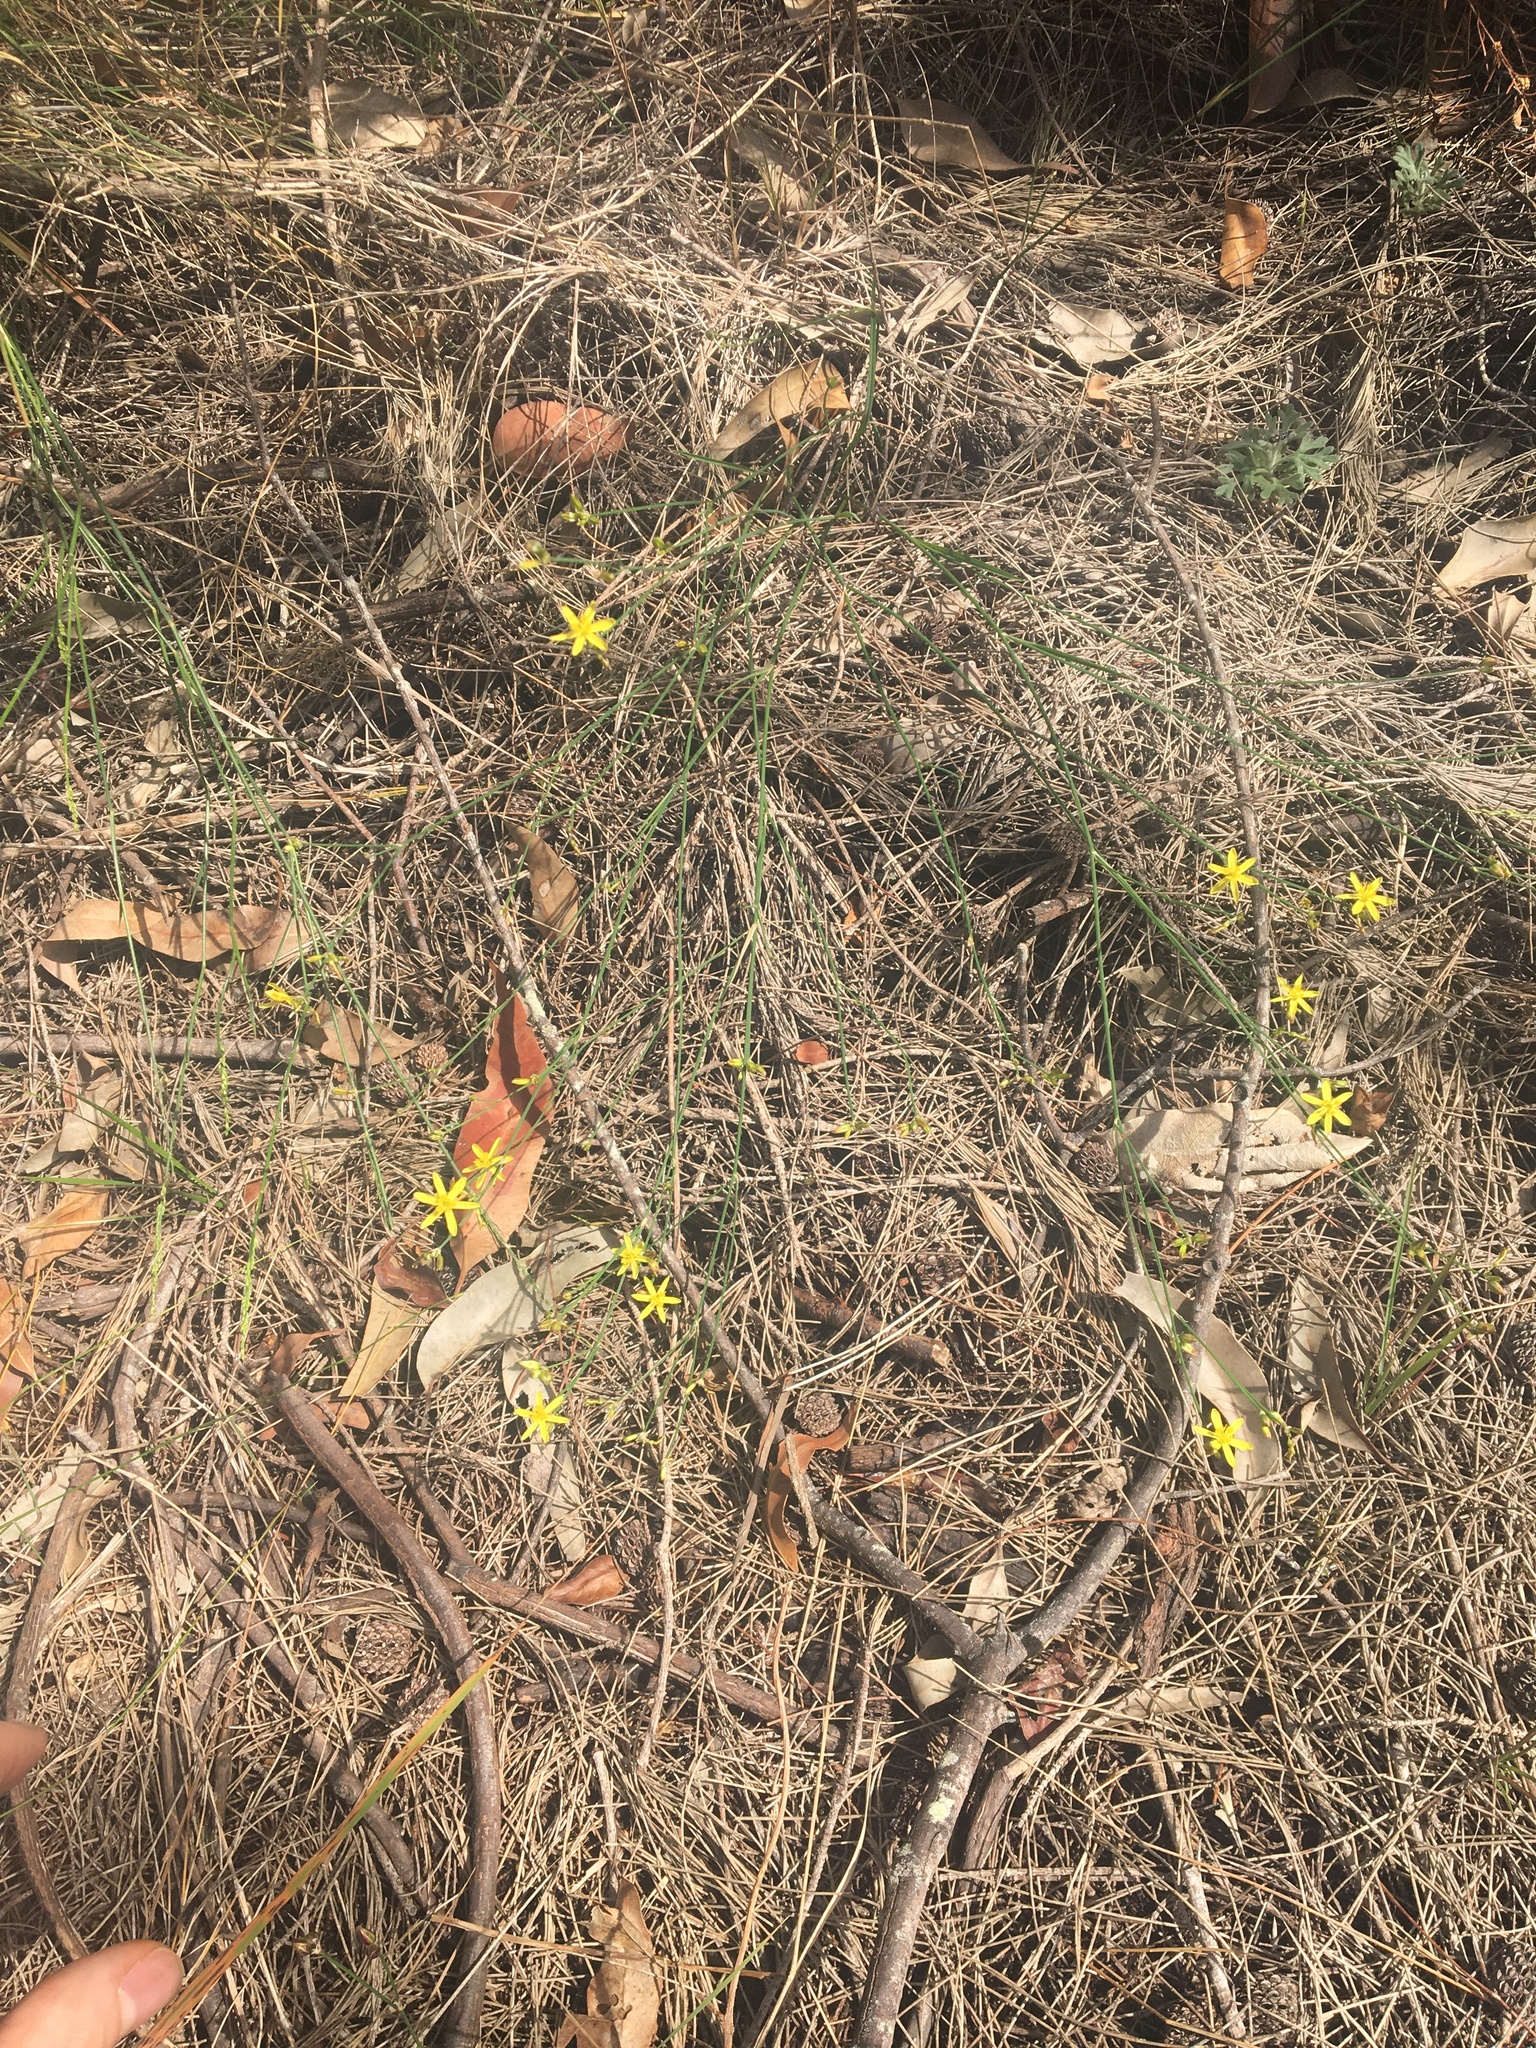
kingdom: Plantae
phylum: Tracheophyta
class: Liliopsida
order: Asparagales
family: Asphodelaceae
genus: Tricoryne
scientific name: Tricoryne elatior
